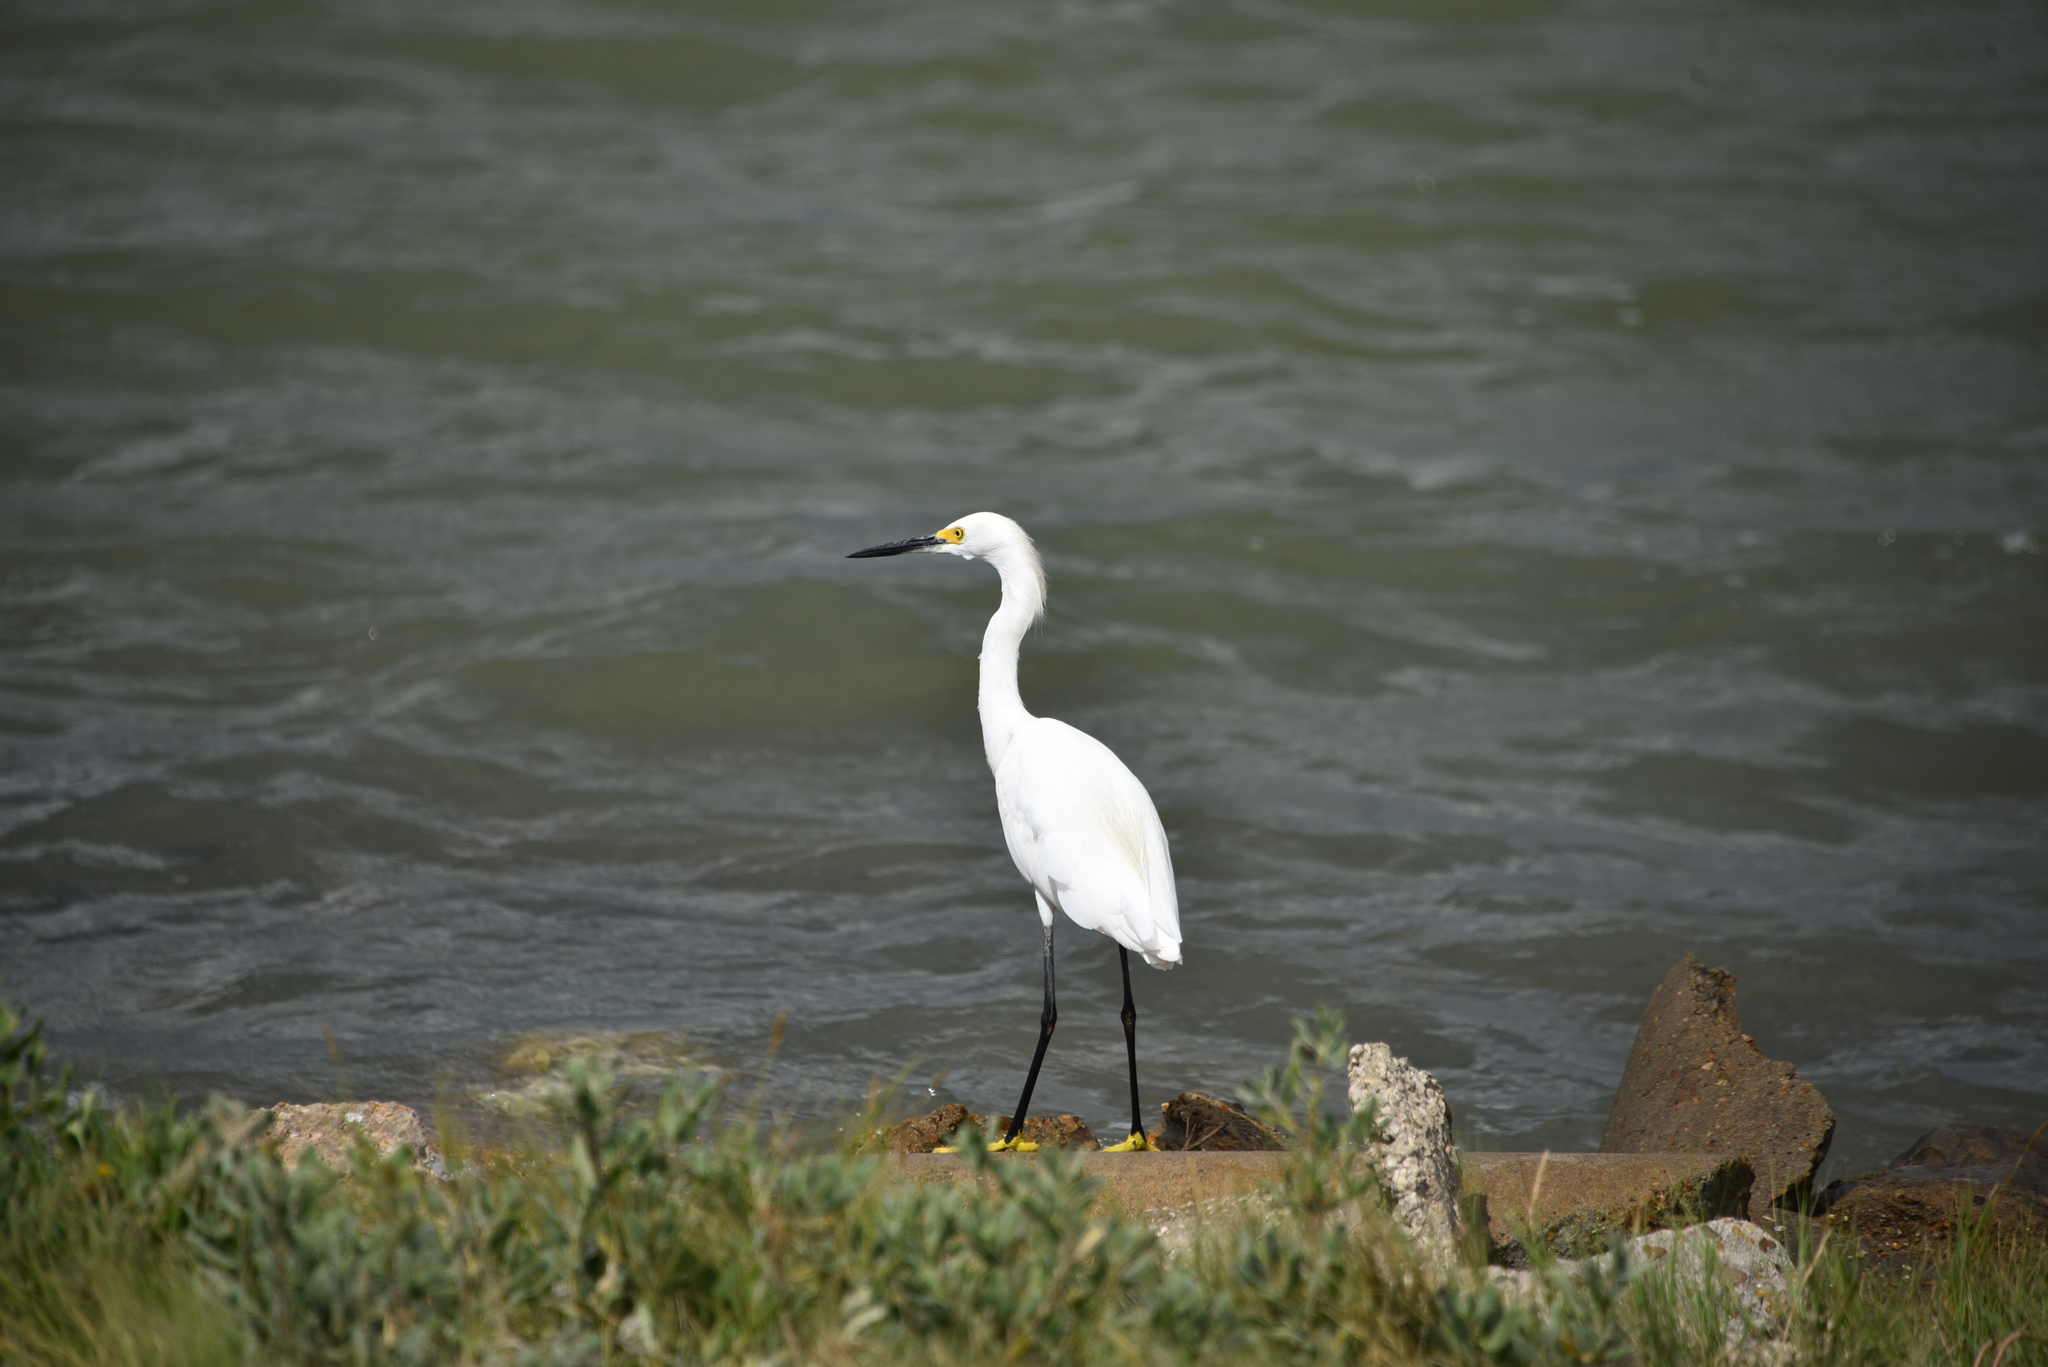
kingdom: Animalia
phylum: Chordata
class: Aves
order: Pelecaniformes
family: Ardeidae
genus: Egretta
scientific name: Egretta thula
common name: Snowy egret
